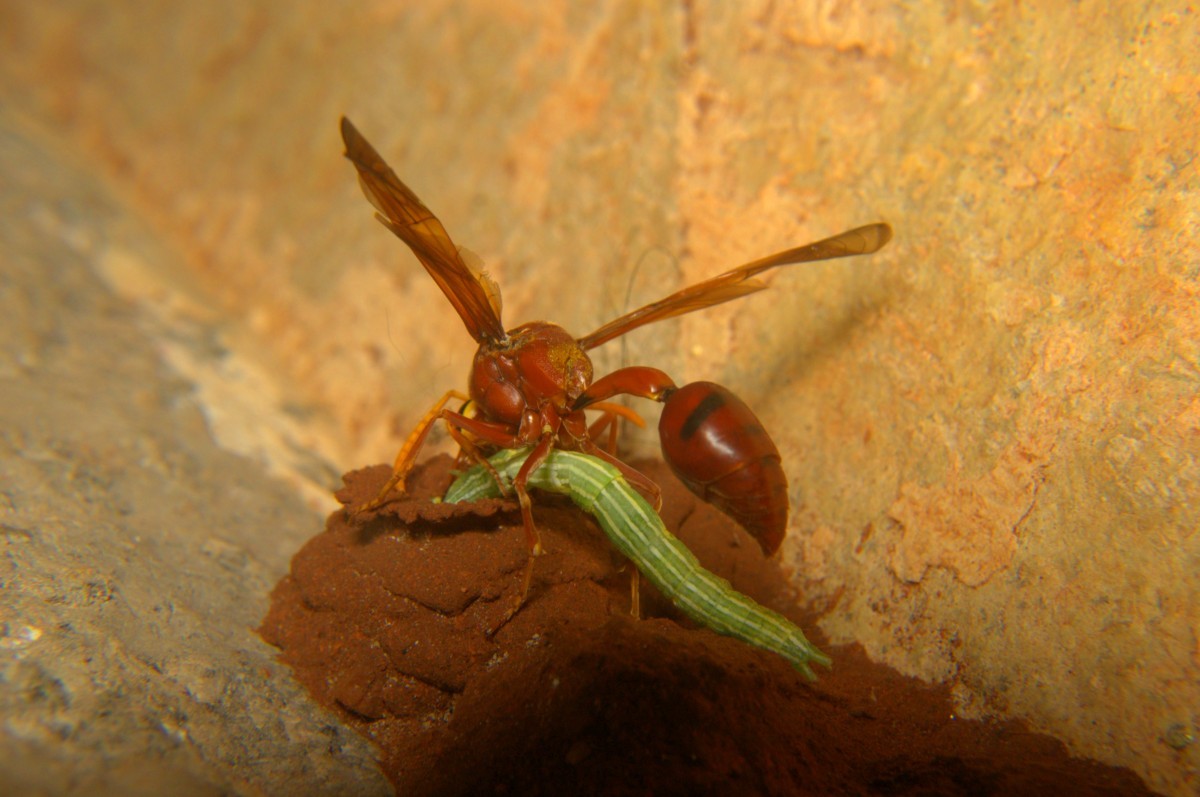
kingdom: Animalia
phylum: Arthropoda
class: Insecta
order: Hymenoptera
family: Eumenidae
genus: Delta
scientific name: Delta conoideum
